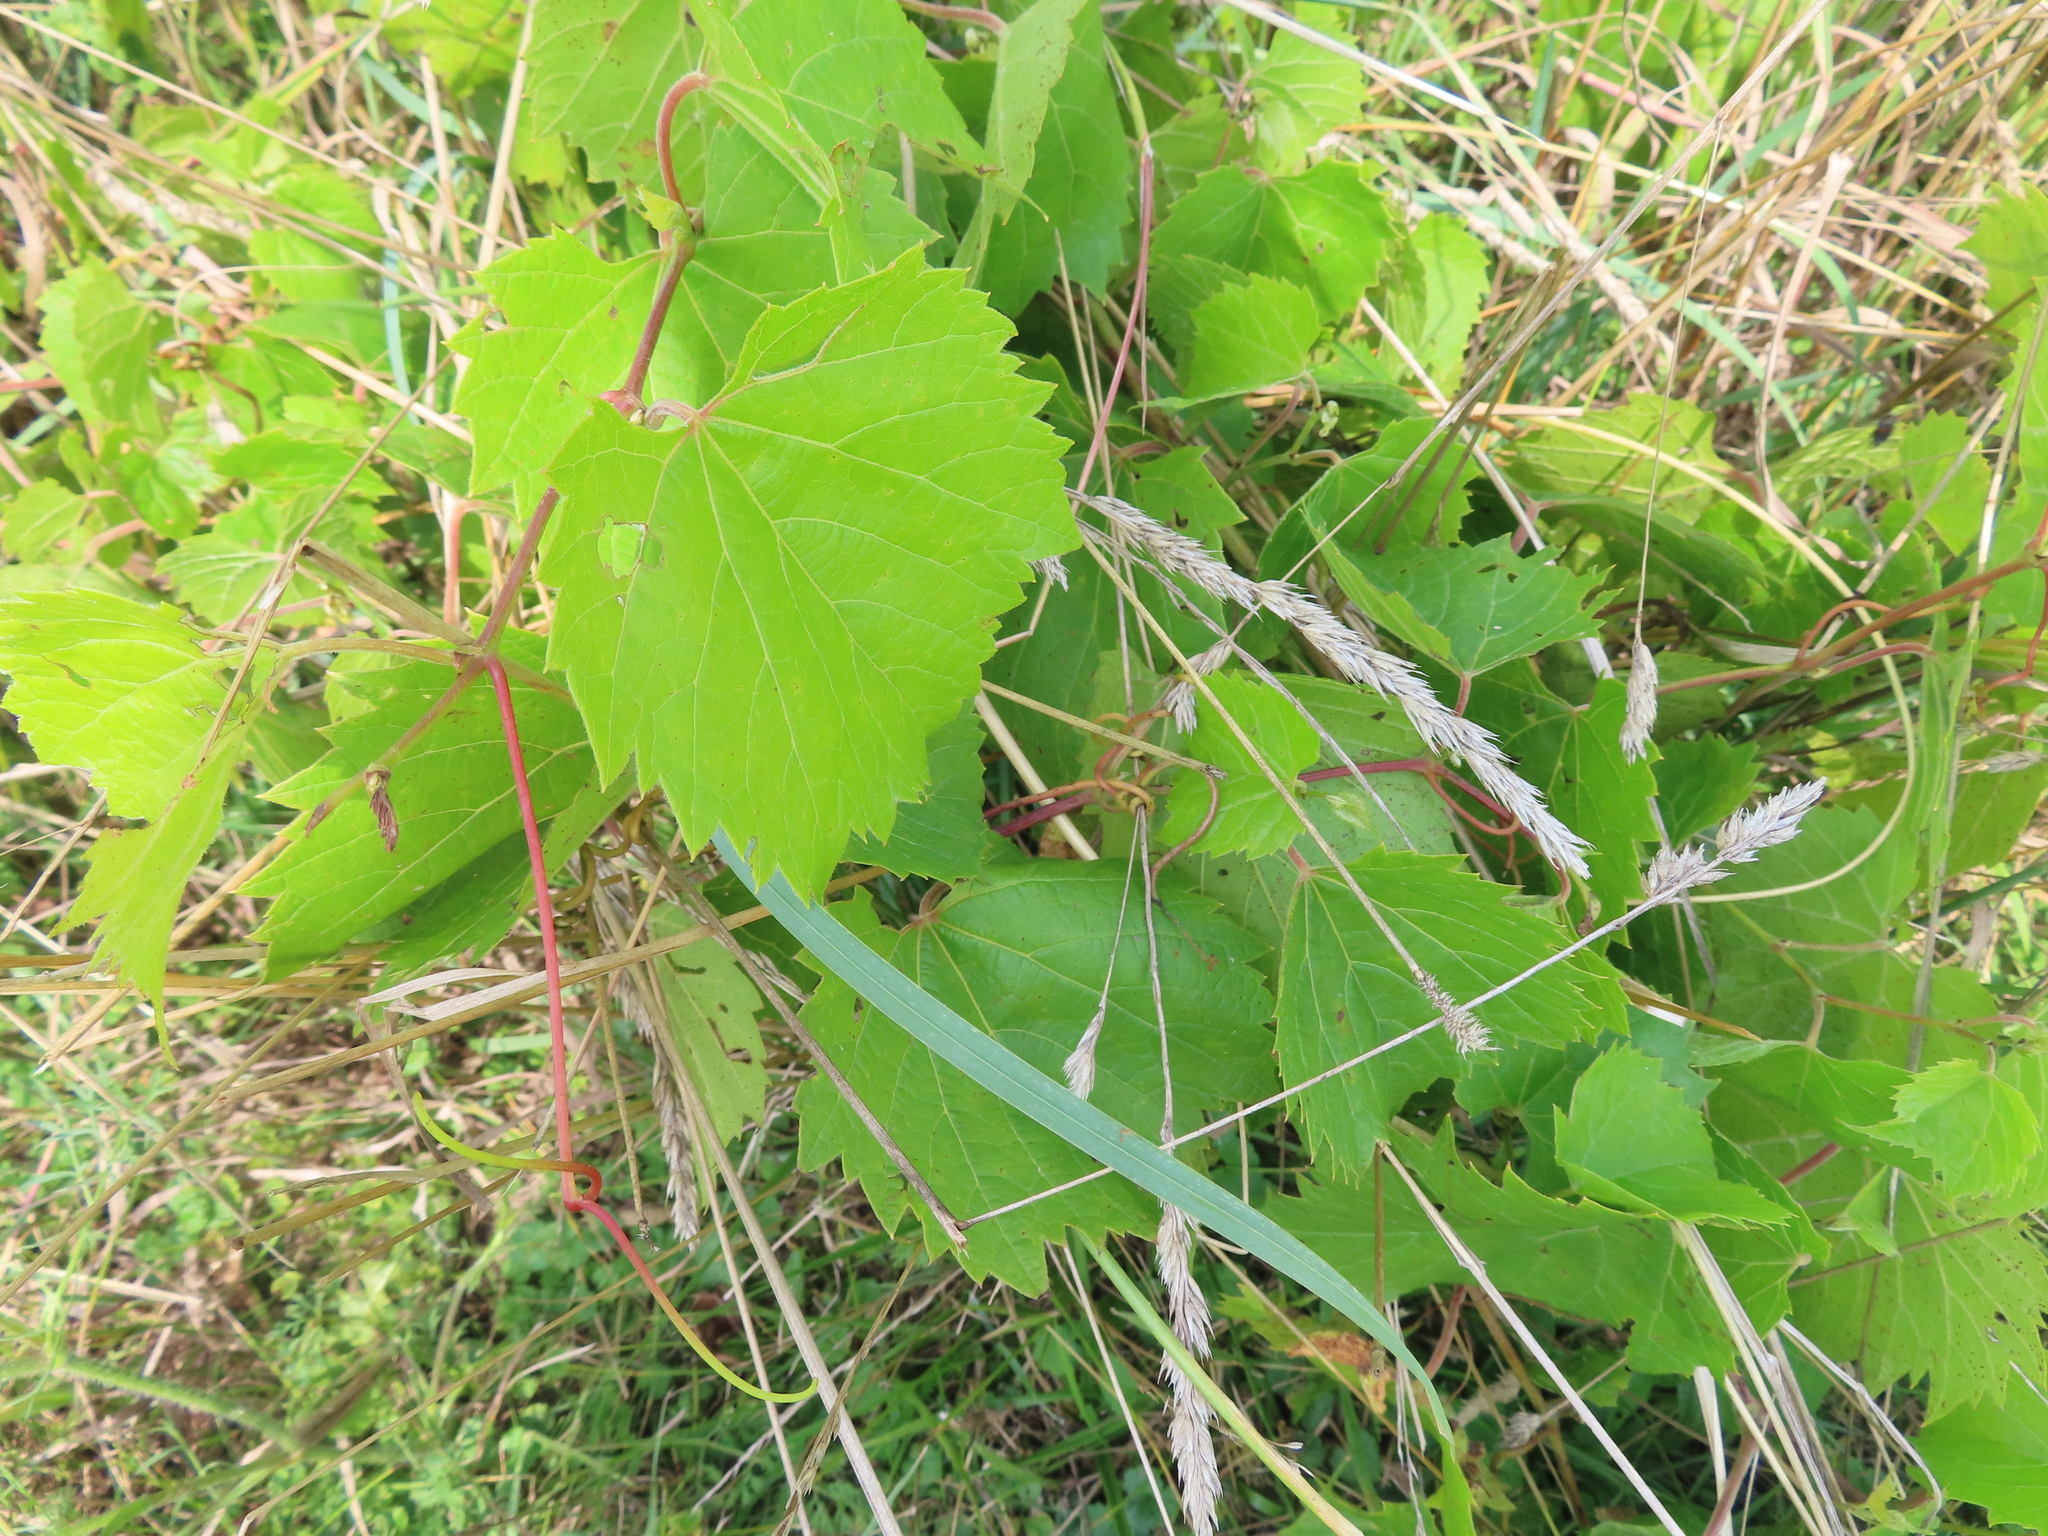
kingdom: Plantae
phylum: Tracheophyta
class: Magnoliopsida
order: Vitales
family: Vitaceae
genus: Vitis
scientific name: Vitis riparia
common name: Frost grape
